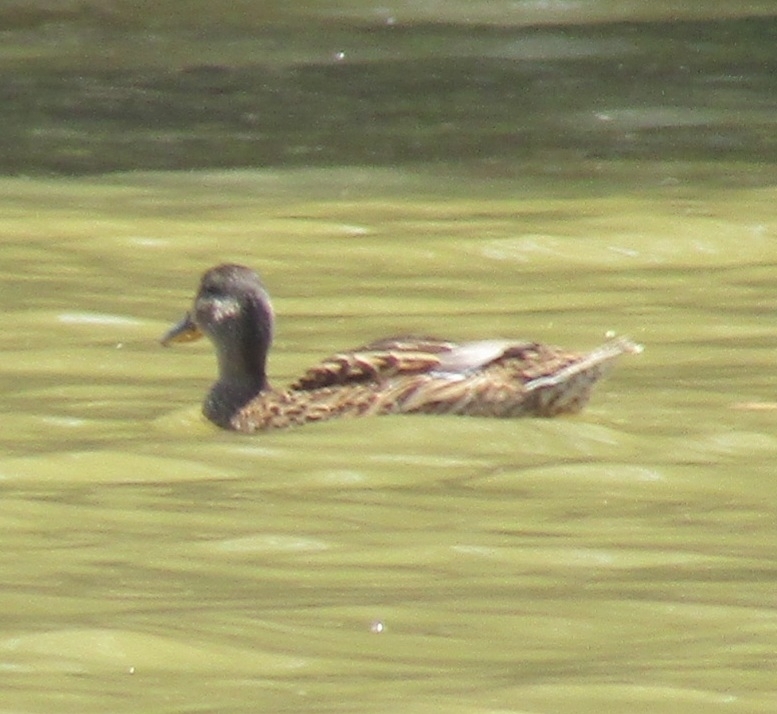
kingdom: Animalia
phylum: Chordata
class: Aves
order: Anseriformes
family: Anatidae
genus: Anas
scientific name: Anas platyrhynchos
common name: Mallard
